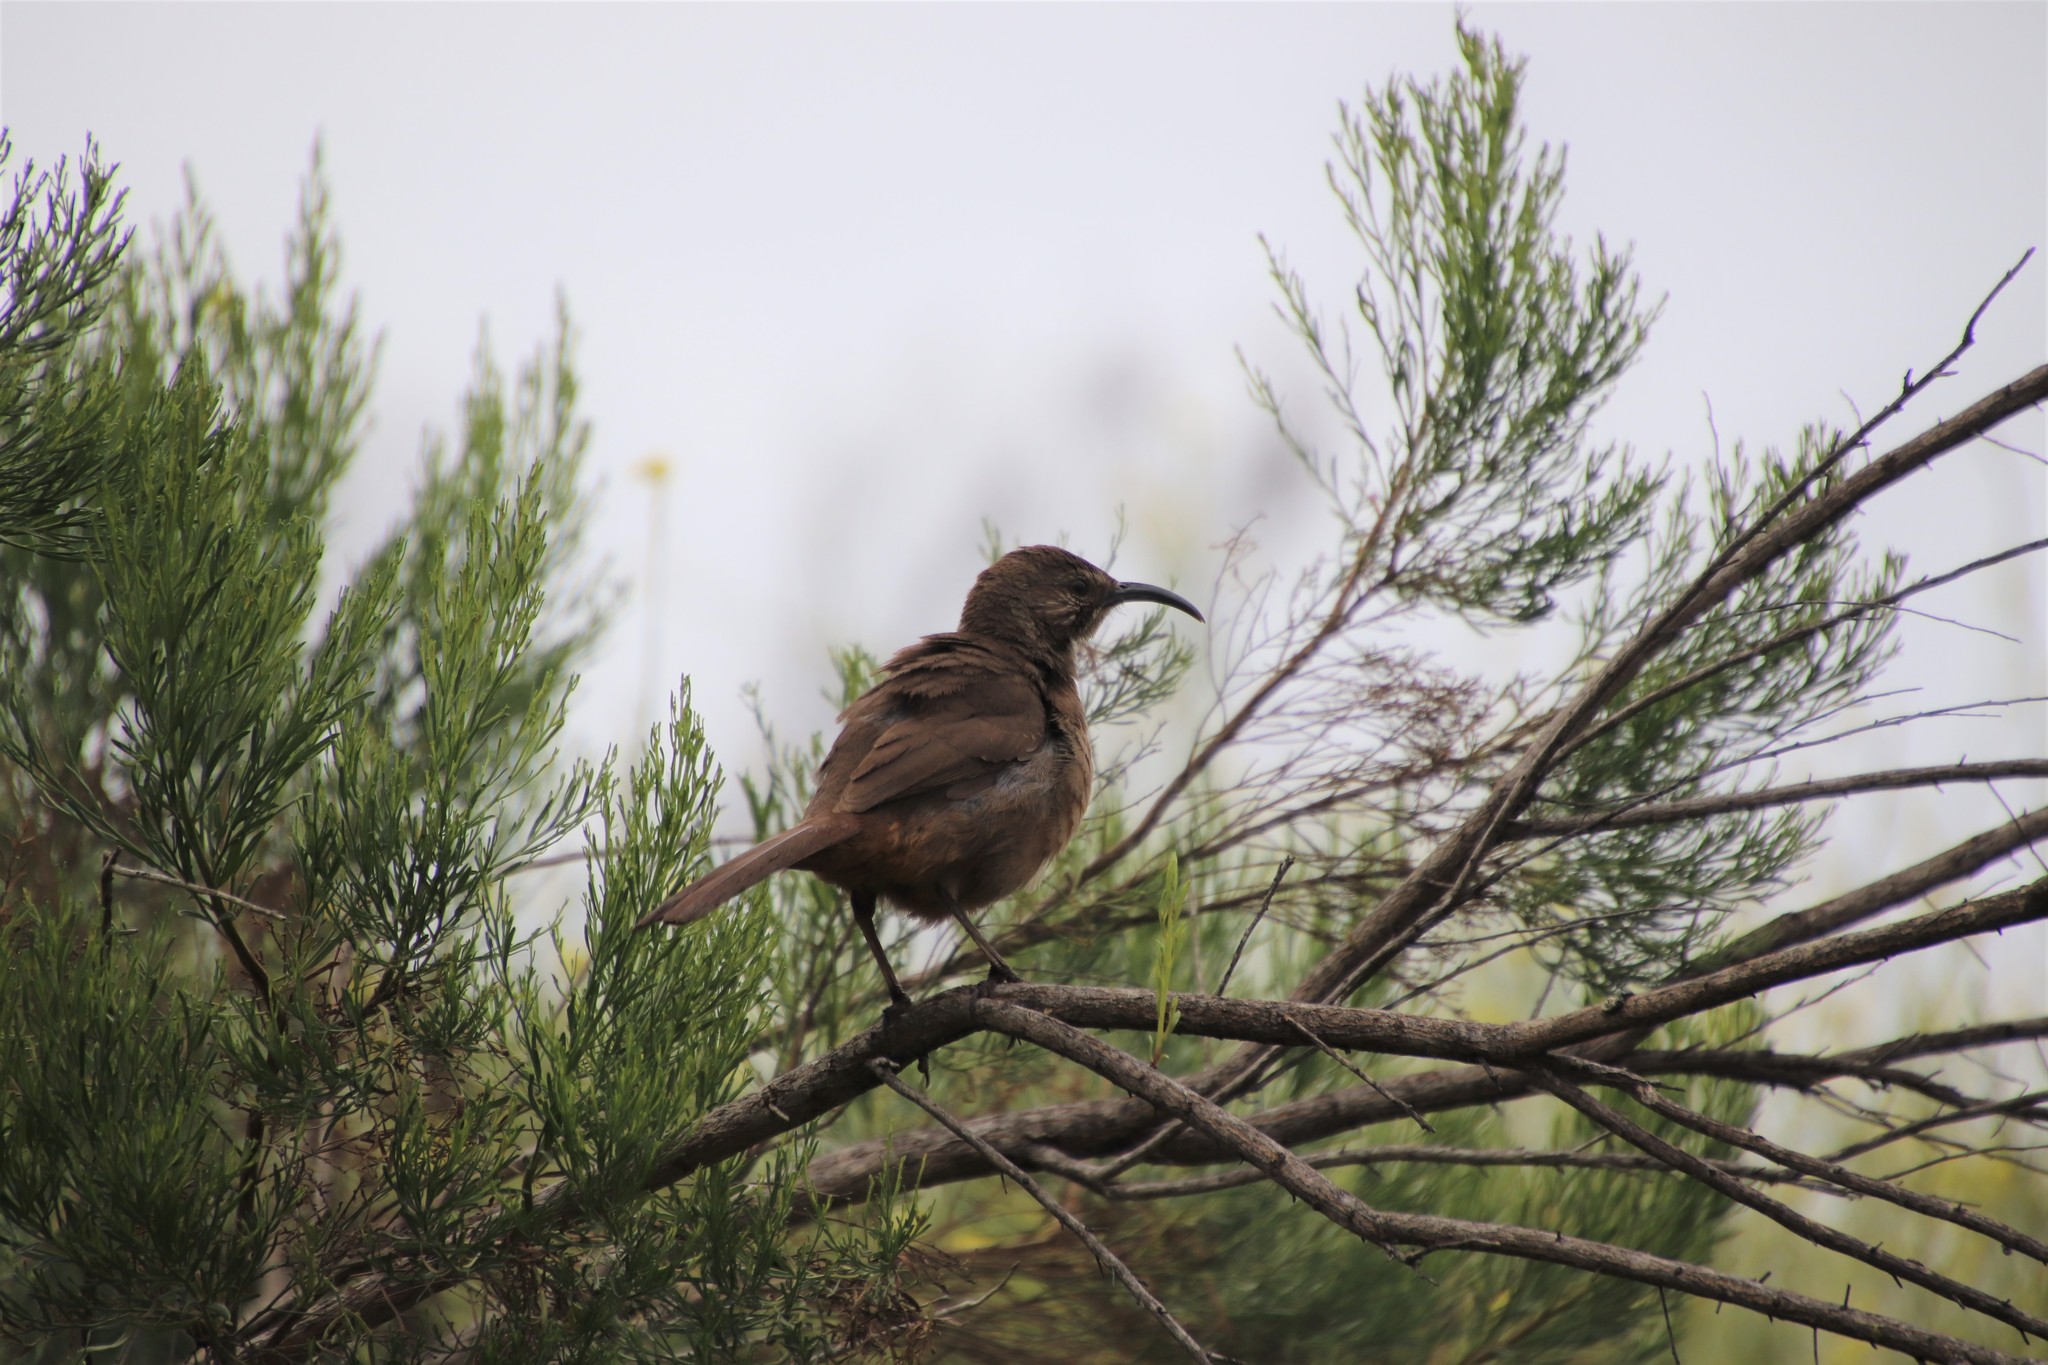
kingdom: Animalia
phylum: Chordata
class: Aves
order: Passeriformes
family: Mimidae
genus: Toxostoma
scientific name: Toxostoma redivivum
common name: California thrasher
